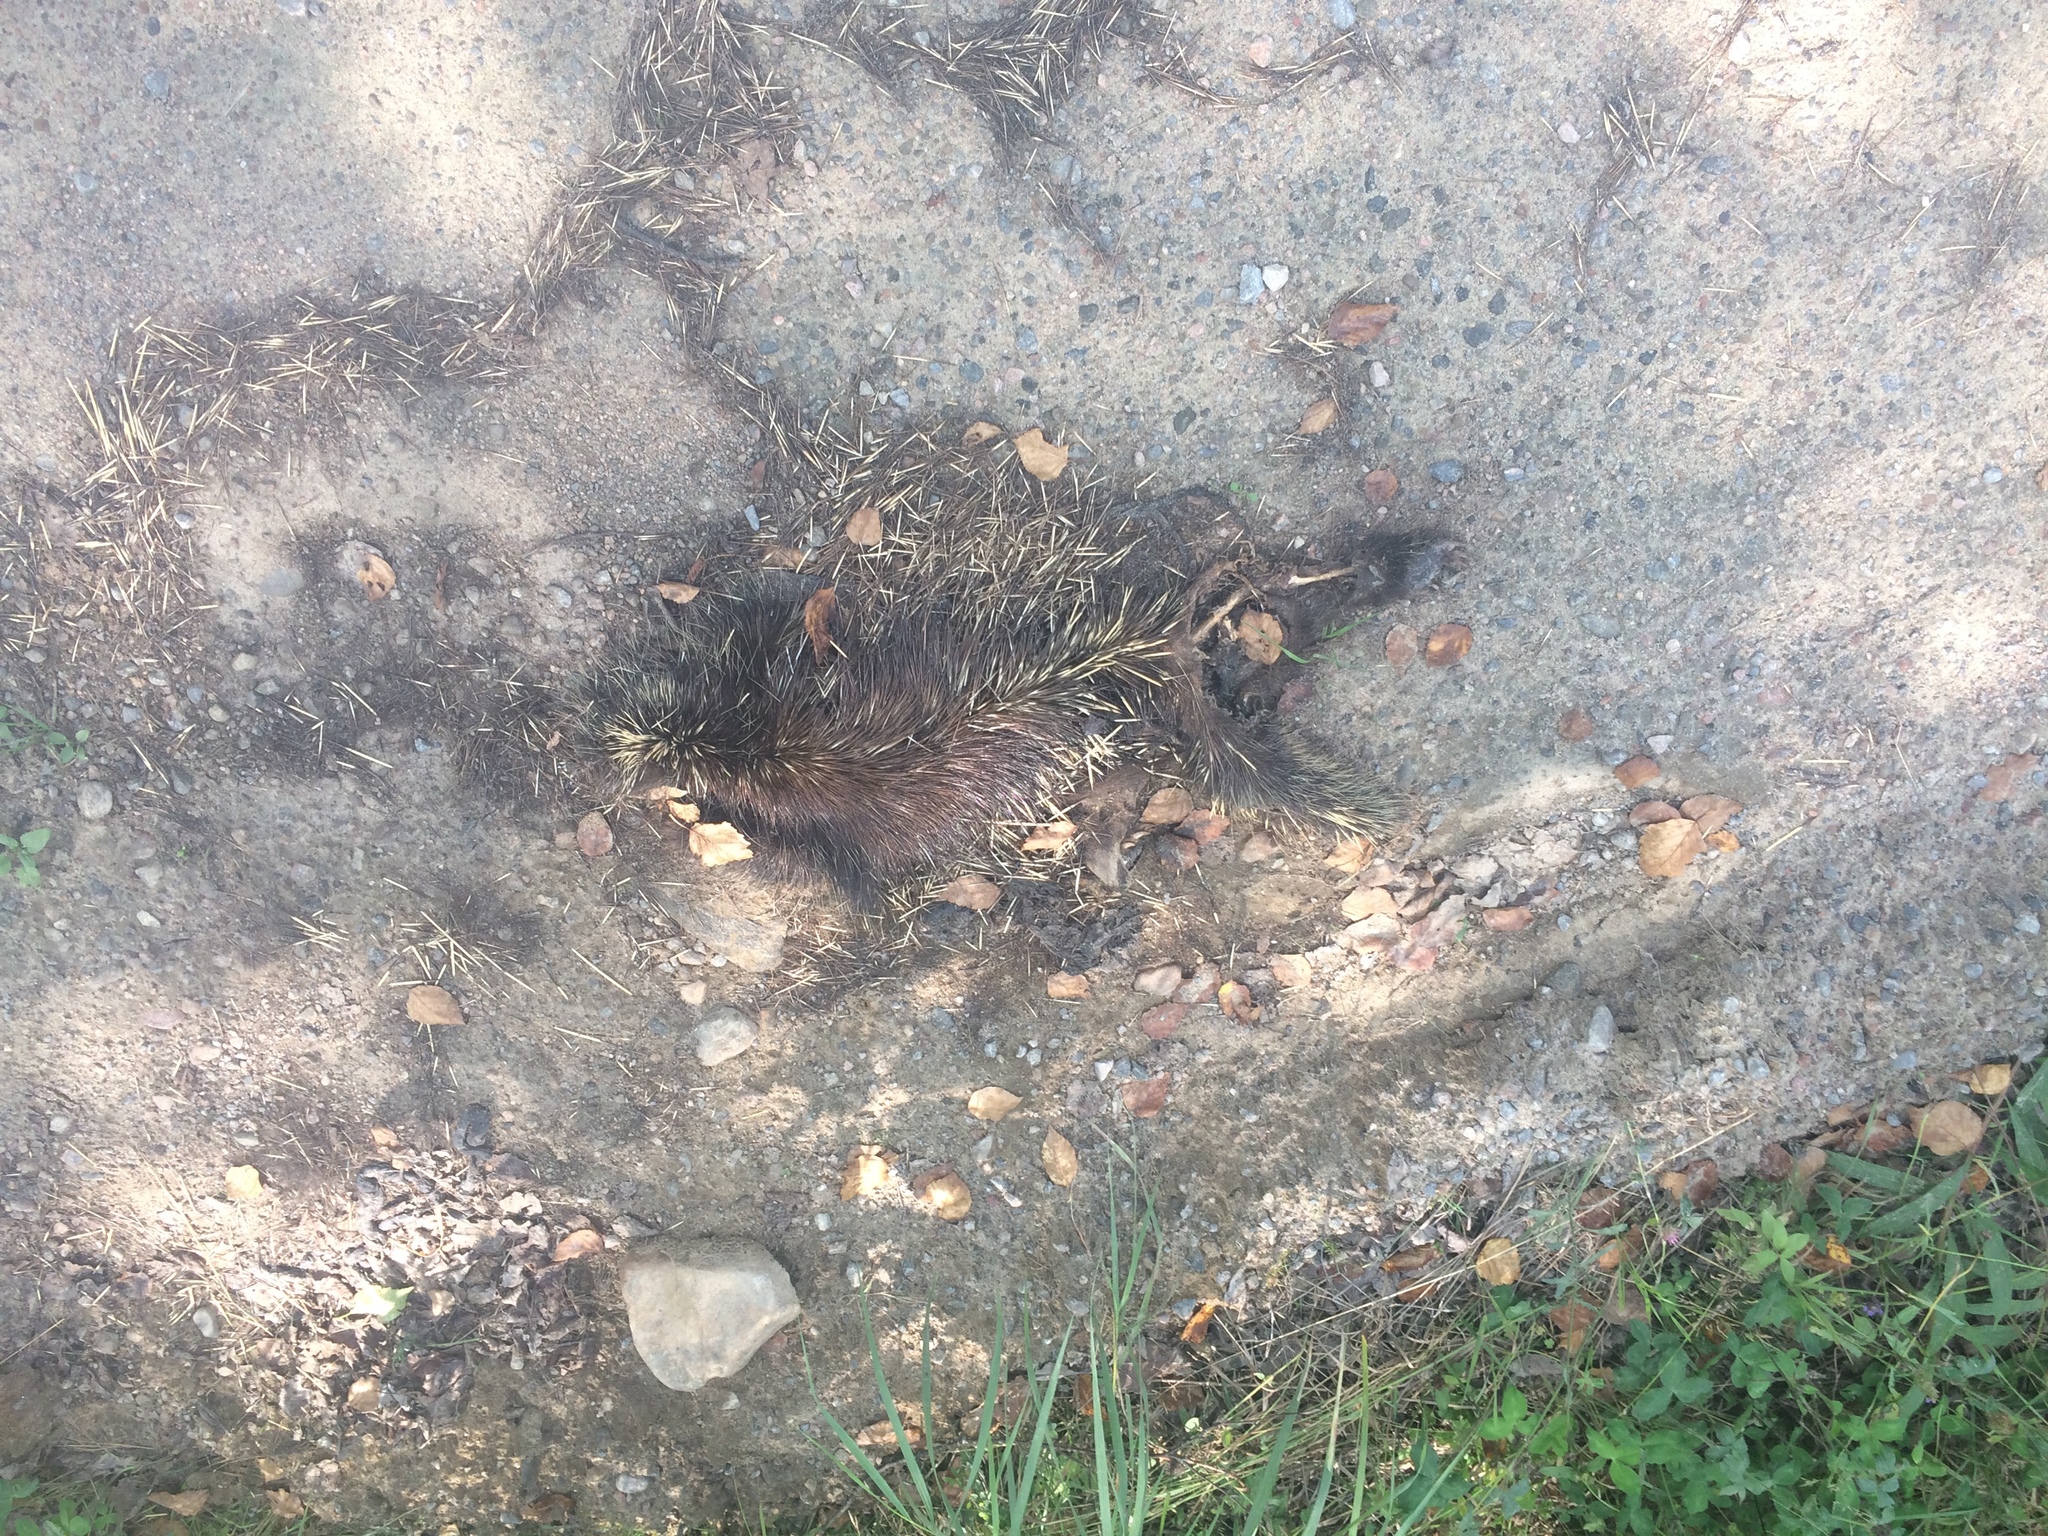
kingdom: Animalia
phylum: Chordata
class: Mammalia
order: Rodentia
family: Erethizontidae
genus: Erethizon
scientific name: Erethizon dorsatus
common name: North american porcupine
